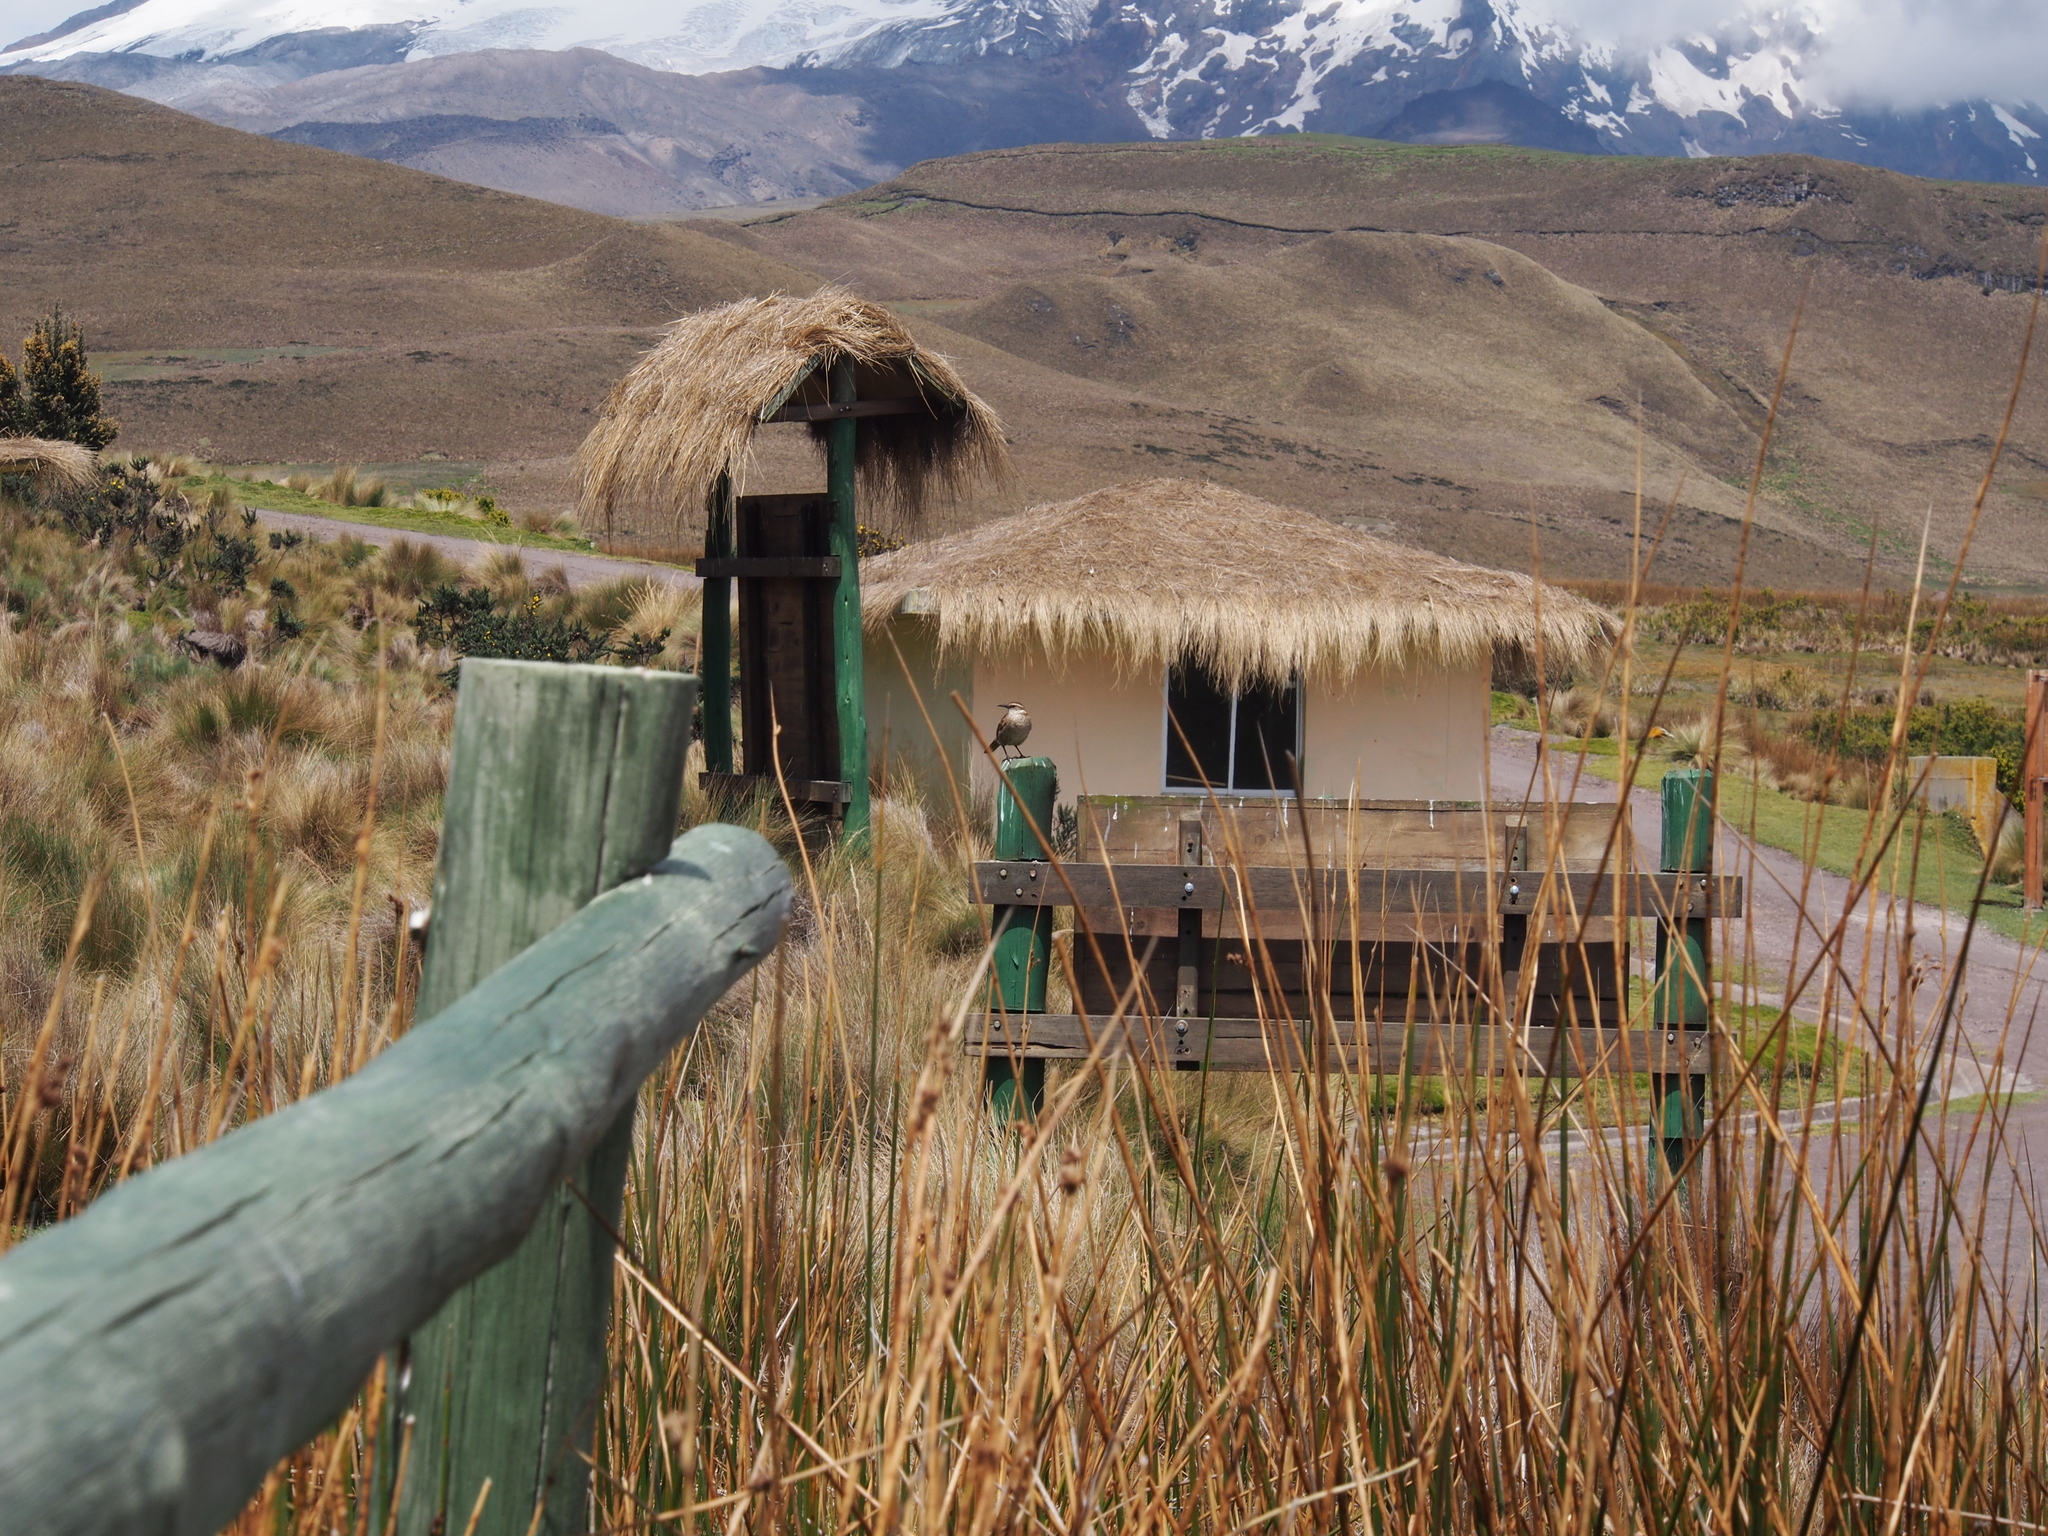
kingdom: Animalia
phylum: Chordata
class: Aves
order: Passeriformes
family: Furnariidae
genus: Cinclodes
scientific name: Cinclodes excelsior
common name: Stout-billed cinclodes
